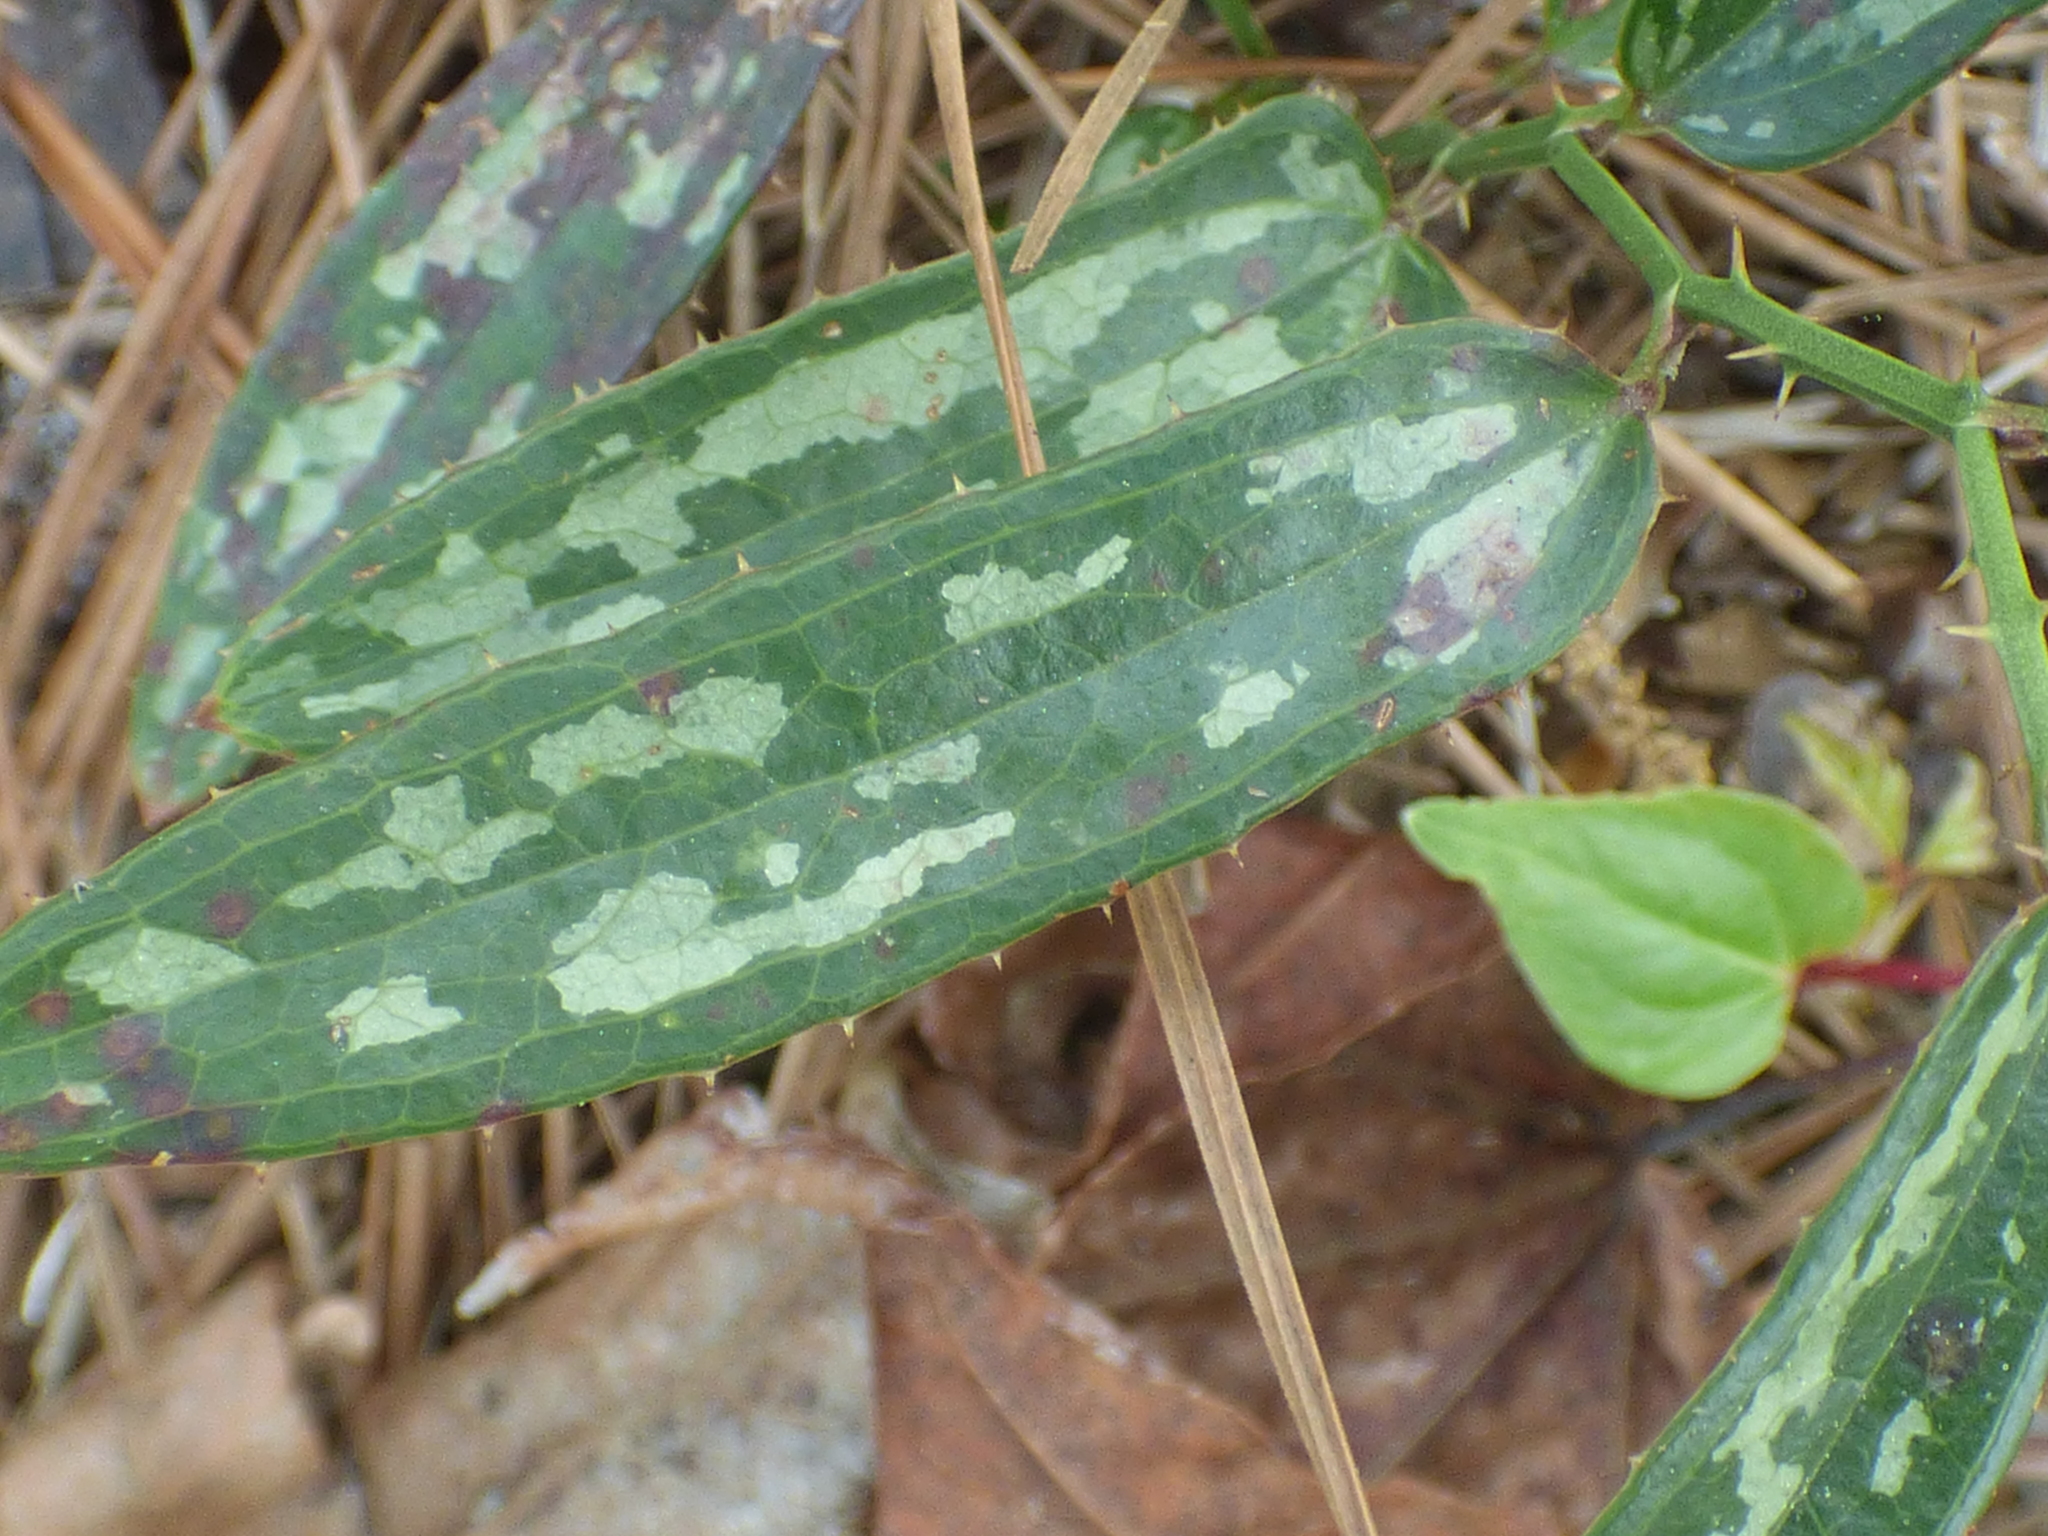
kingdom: Plantae
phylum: Tracheophyta
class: Liliopsida
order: Liliales
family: Smilacaceae
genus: Smilax
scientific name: Smilax bona-nox
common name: Catbrier
